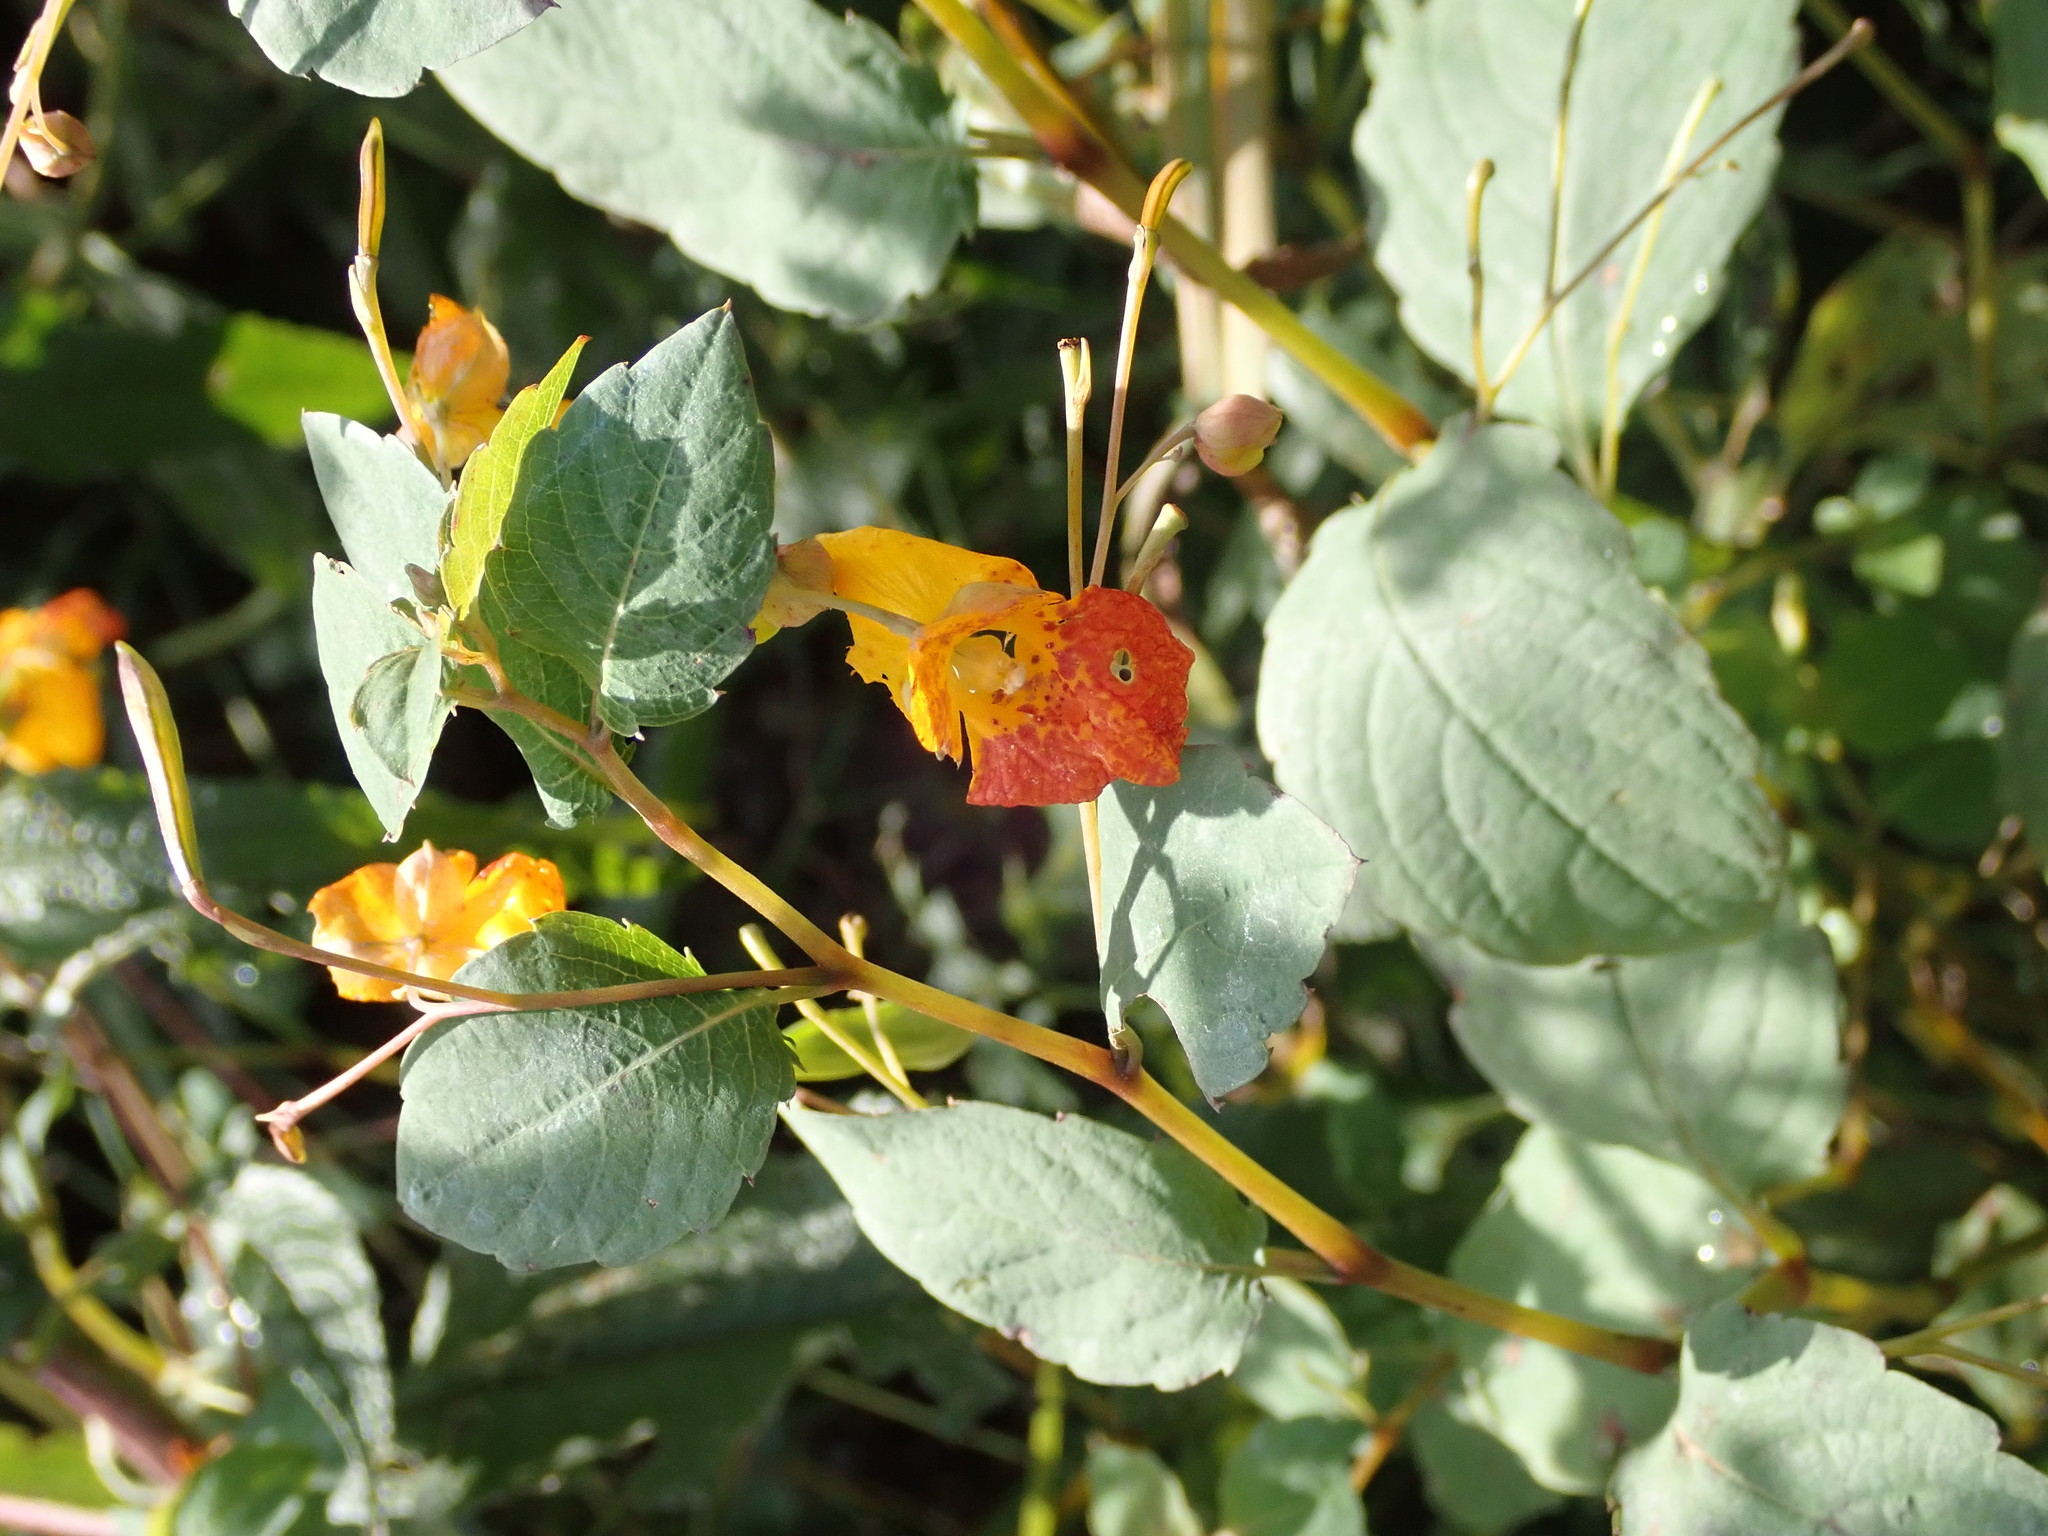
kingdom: Plantae
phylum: Tracheophyta
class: Magnoliopsida
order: Ericales
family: Balsaminaceae
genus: Impatiens
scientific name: Impatiens capensis
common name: Orange balsam
